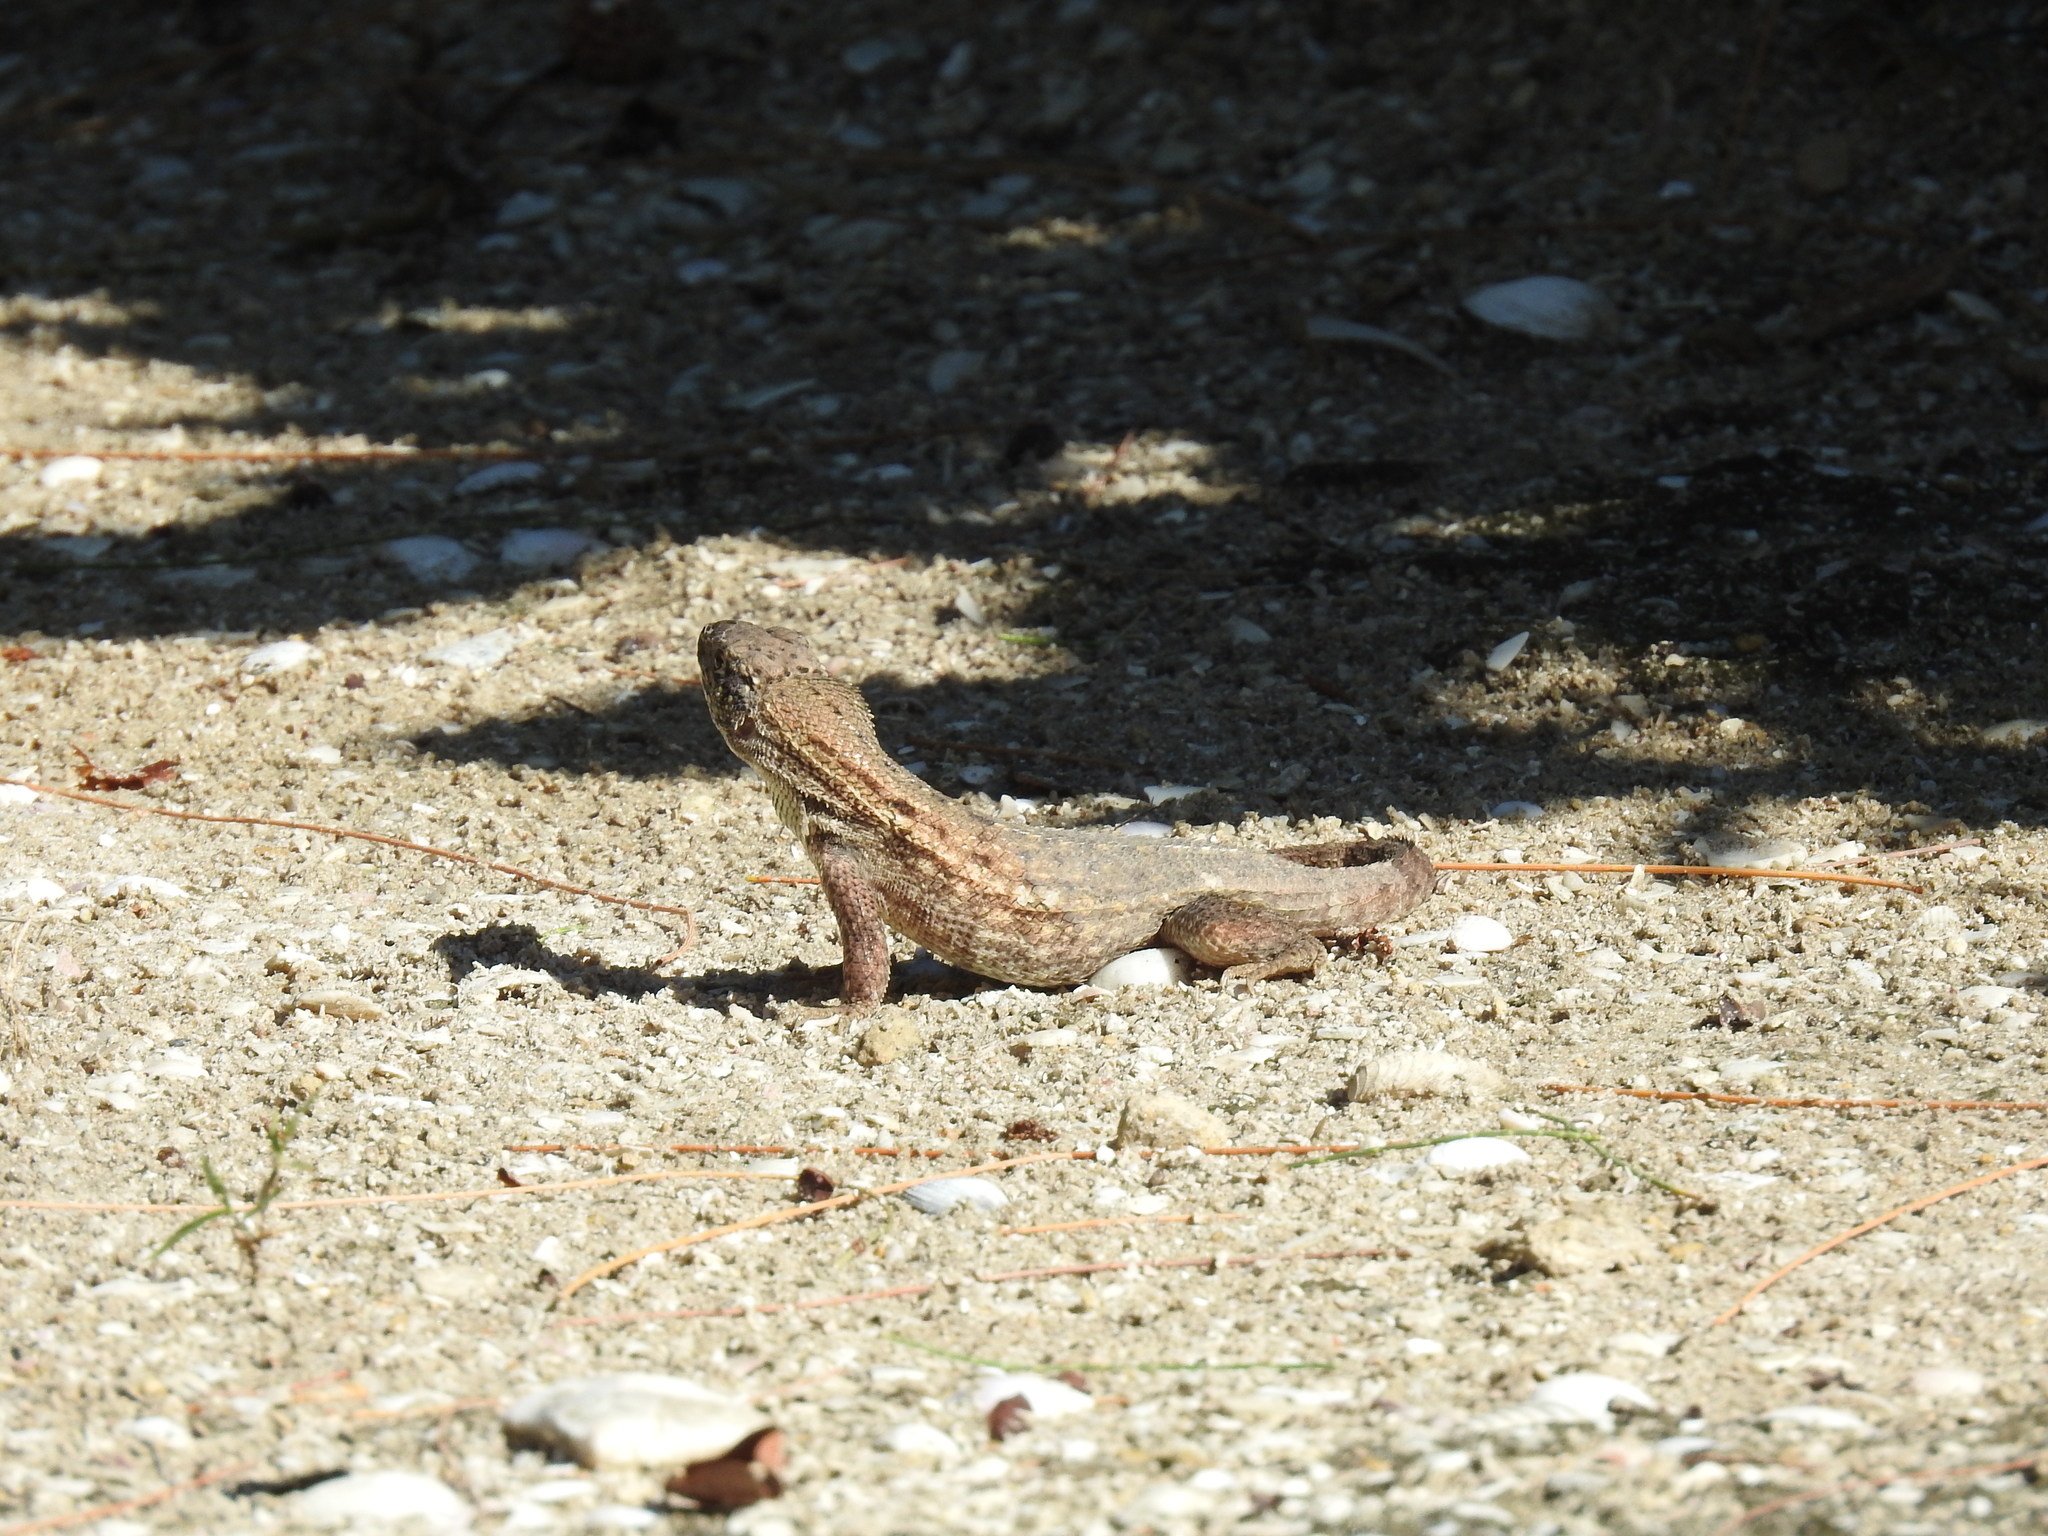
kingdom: Animalia
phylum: Chordata
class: Squamata
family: Leiocephalidae
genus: Leiocephalus
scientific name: Leiocephalus carinatus
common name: Northern curly-tailed lizard
